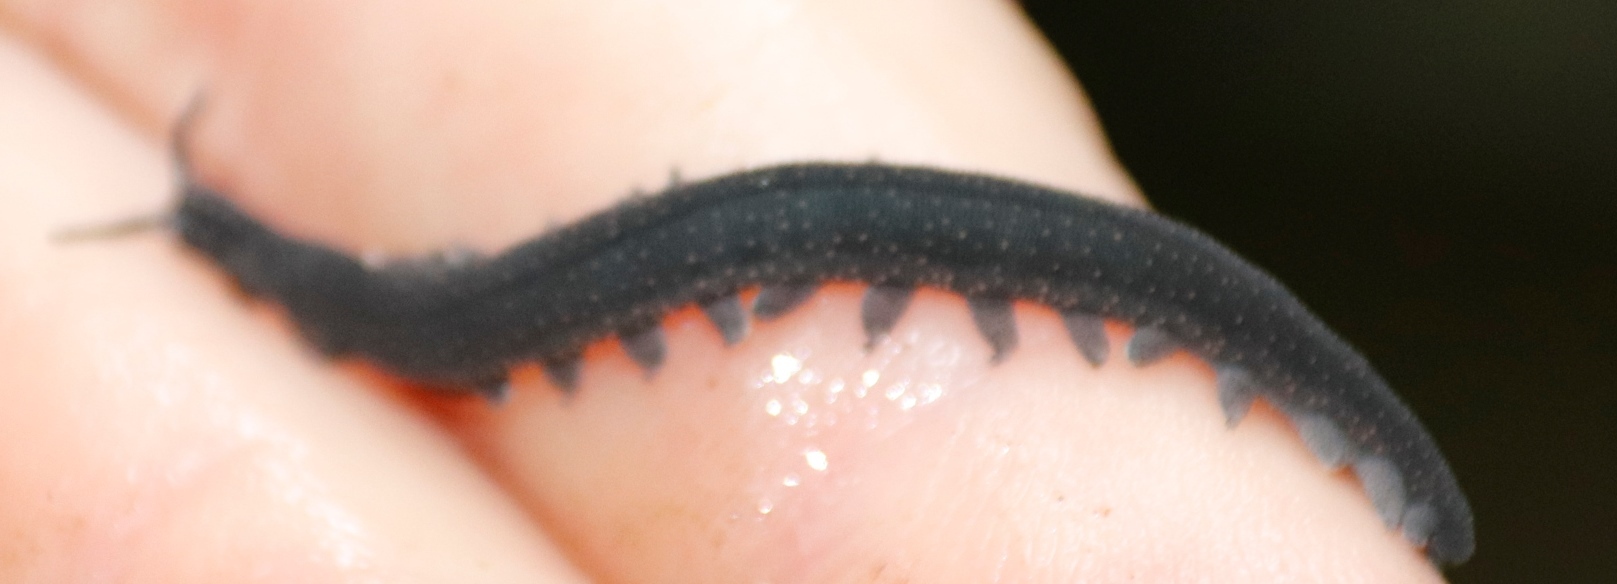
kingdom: Animalia
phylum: Onychophora
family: Peripatopsidae
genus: Peripatopsis
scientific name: Peripatopsis overbergiensis
